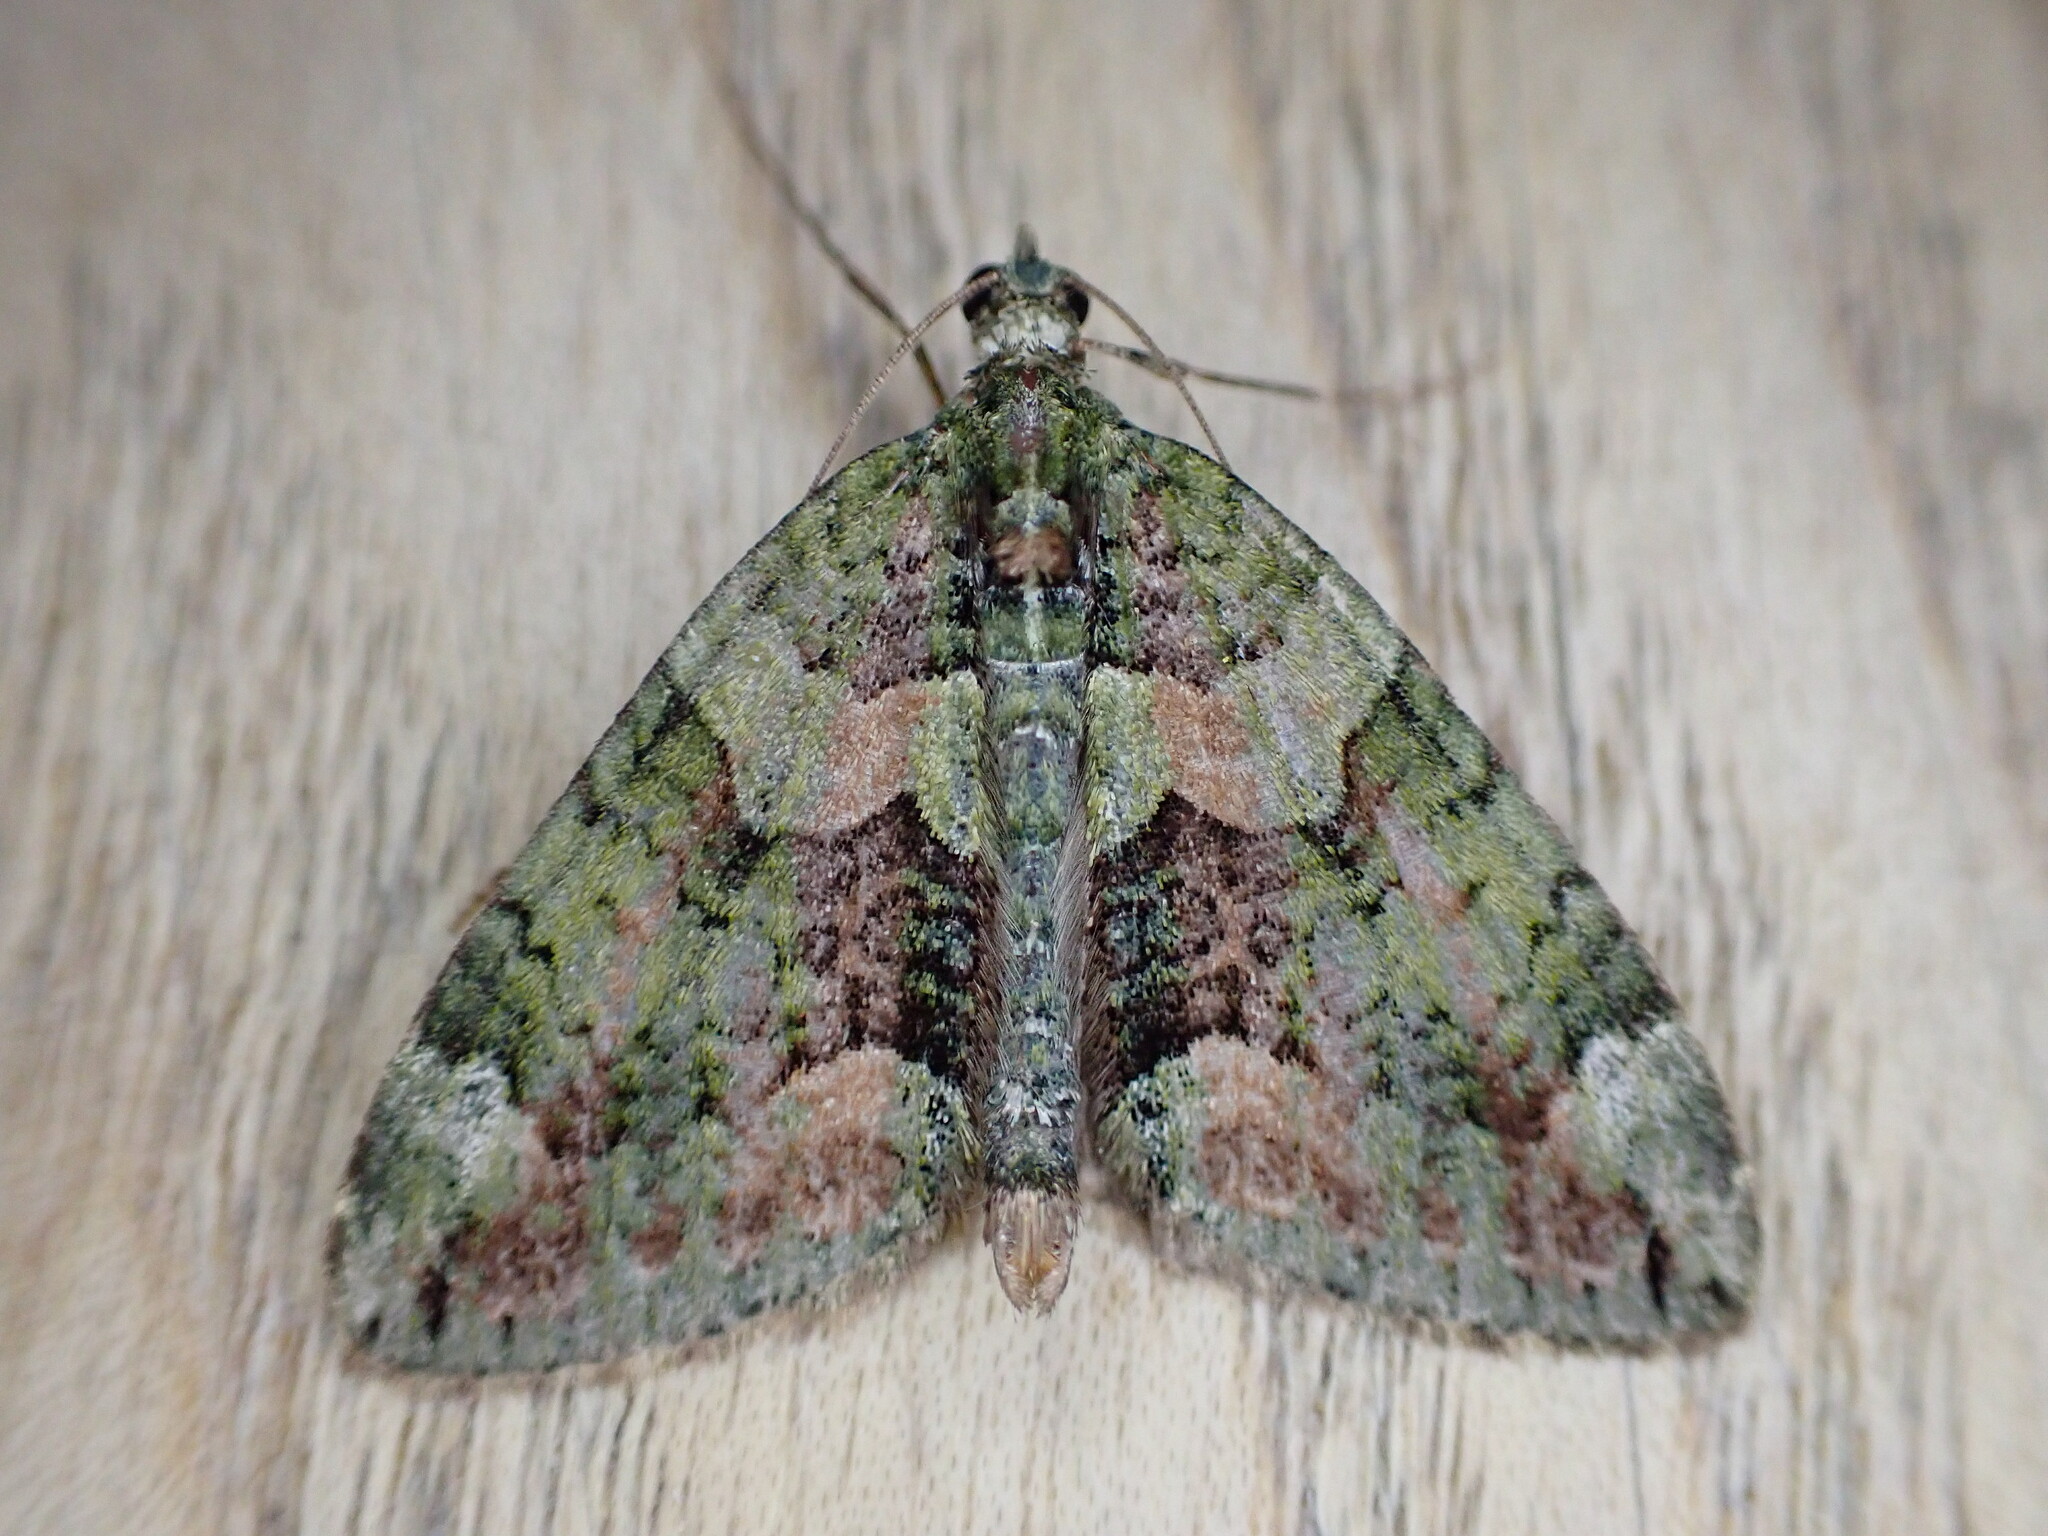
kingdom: Animalia
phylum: Arthropoda
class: Insecta
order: Lepidoptera
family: Geometridae
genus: Chloroclysta
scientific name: Chloroclysta siterata
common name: Red-green carpet
